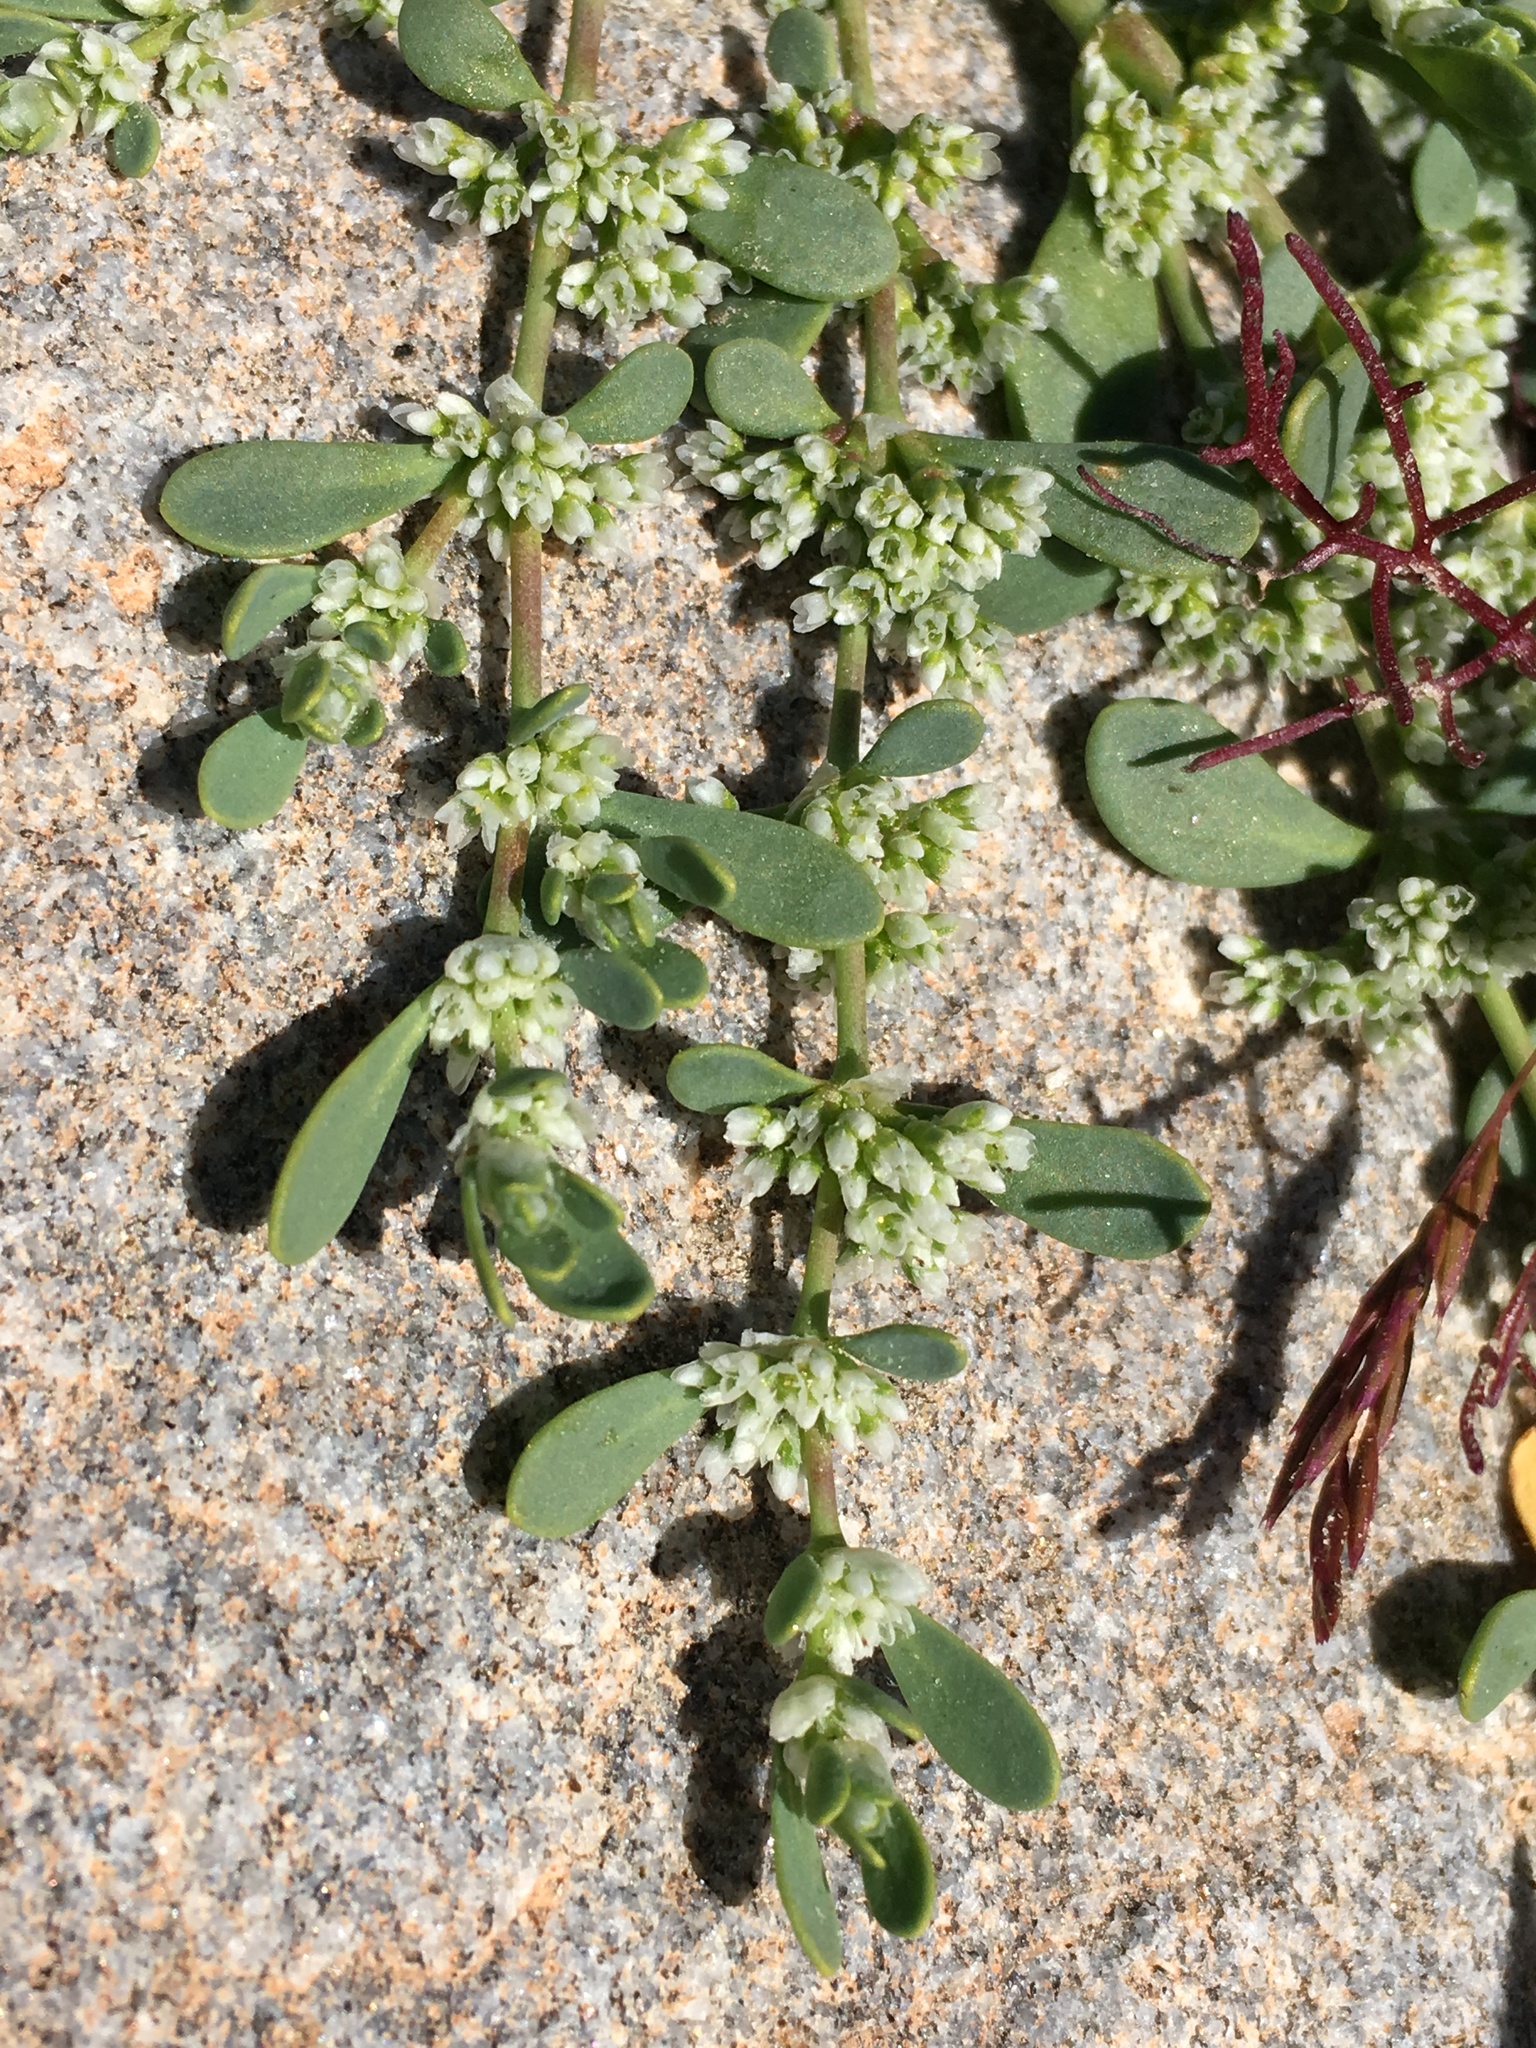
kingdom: Plantae
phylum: Tracheophyta
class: Magnoliopsida
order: Caryophyllales
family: Caryophyllaceae
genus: Achyronychia
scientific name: Achyronychia cooperi
